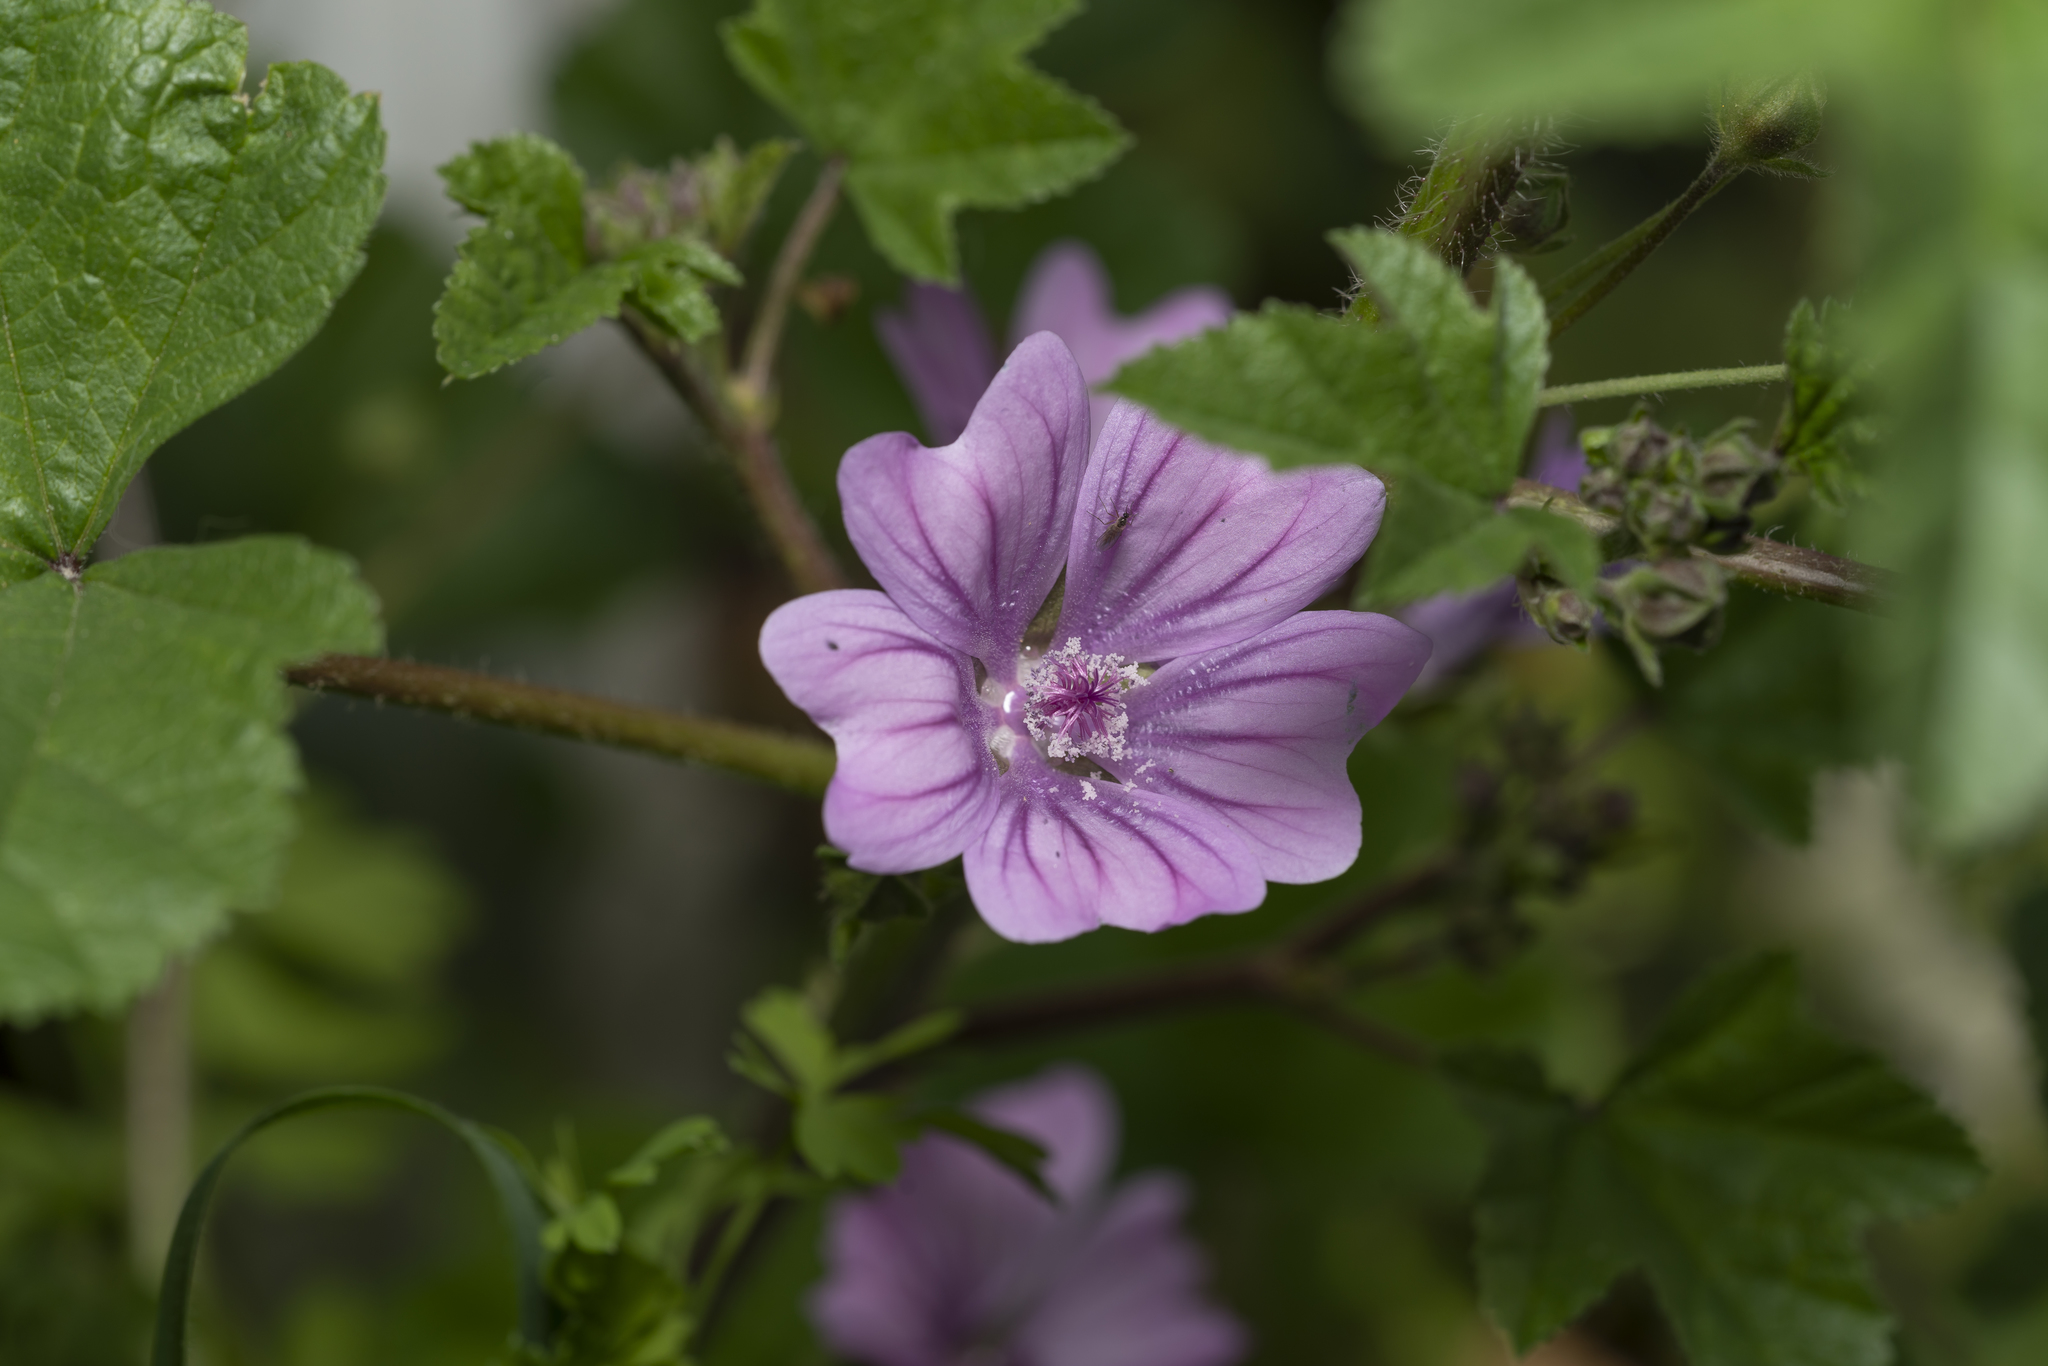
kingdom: Plantae
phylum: Tracheophyta
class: Magnoliopsida
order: Malvales
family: Malvaceae
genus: Malva
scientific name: Malva sylvestris
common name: Common mallow
